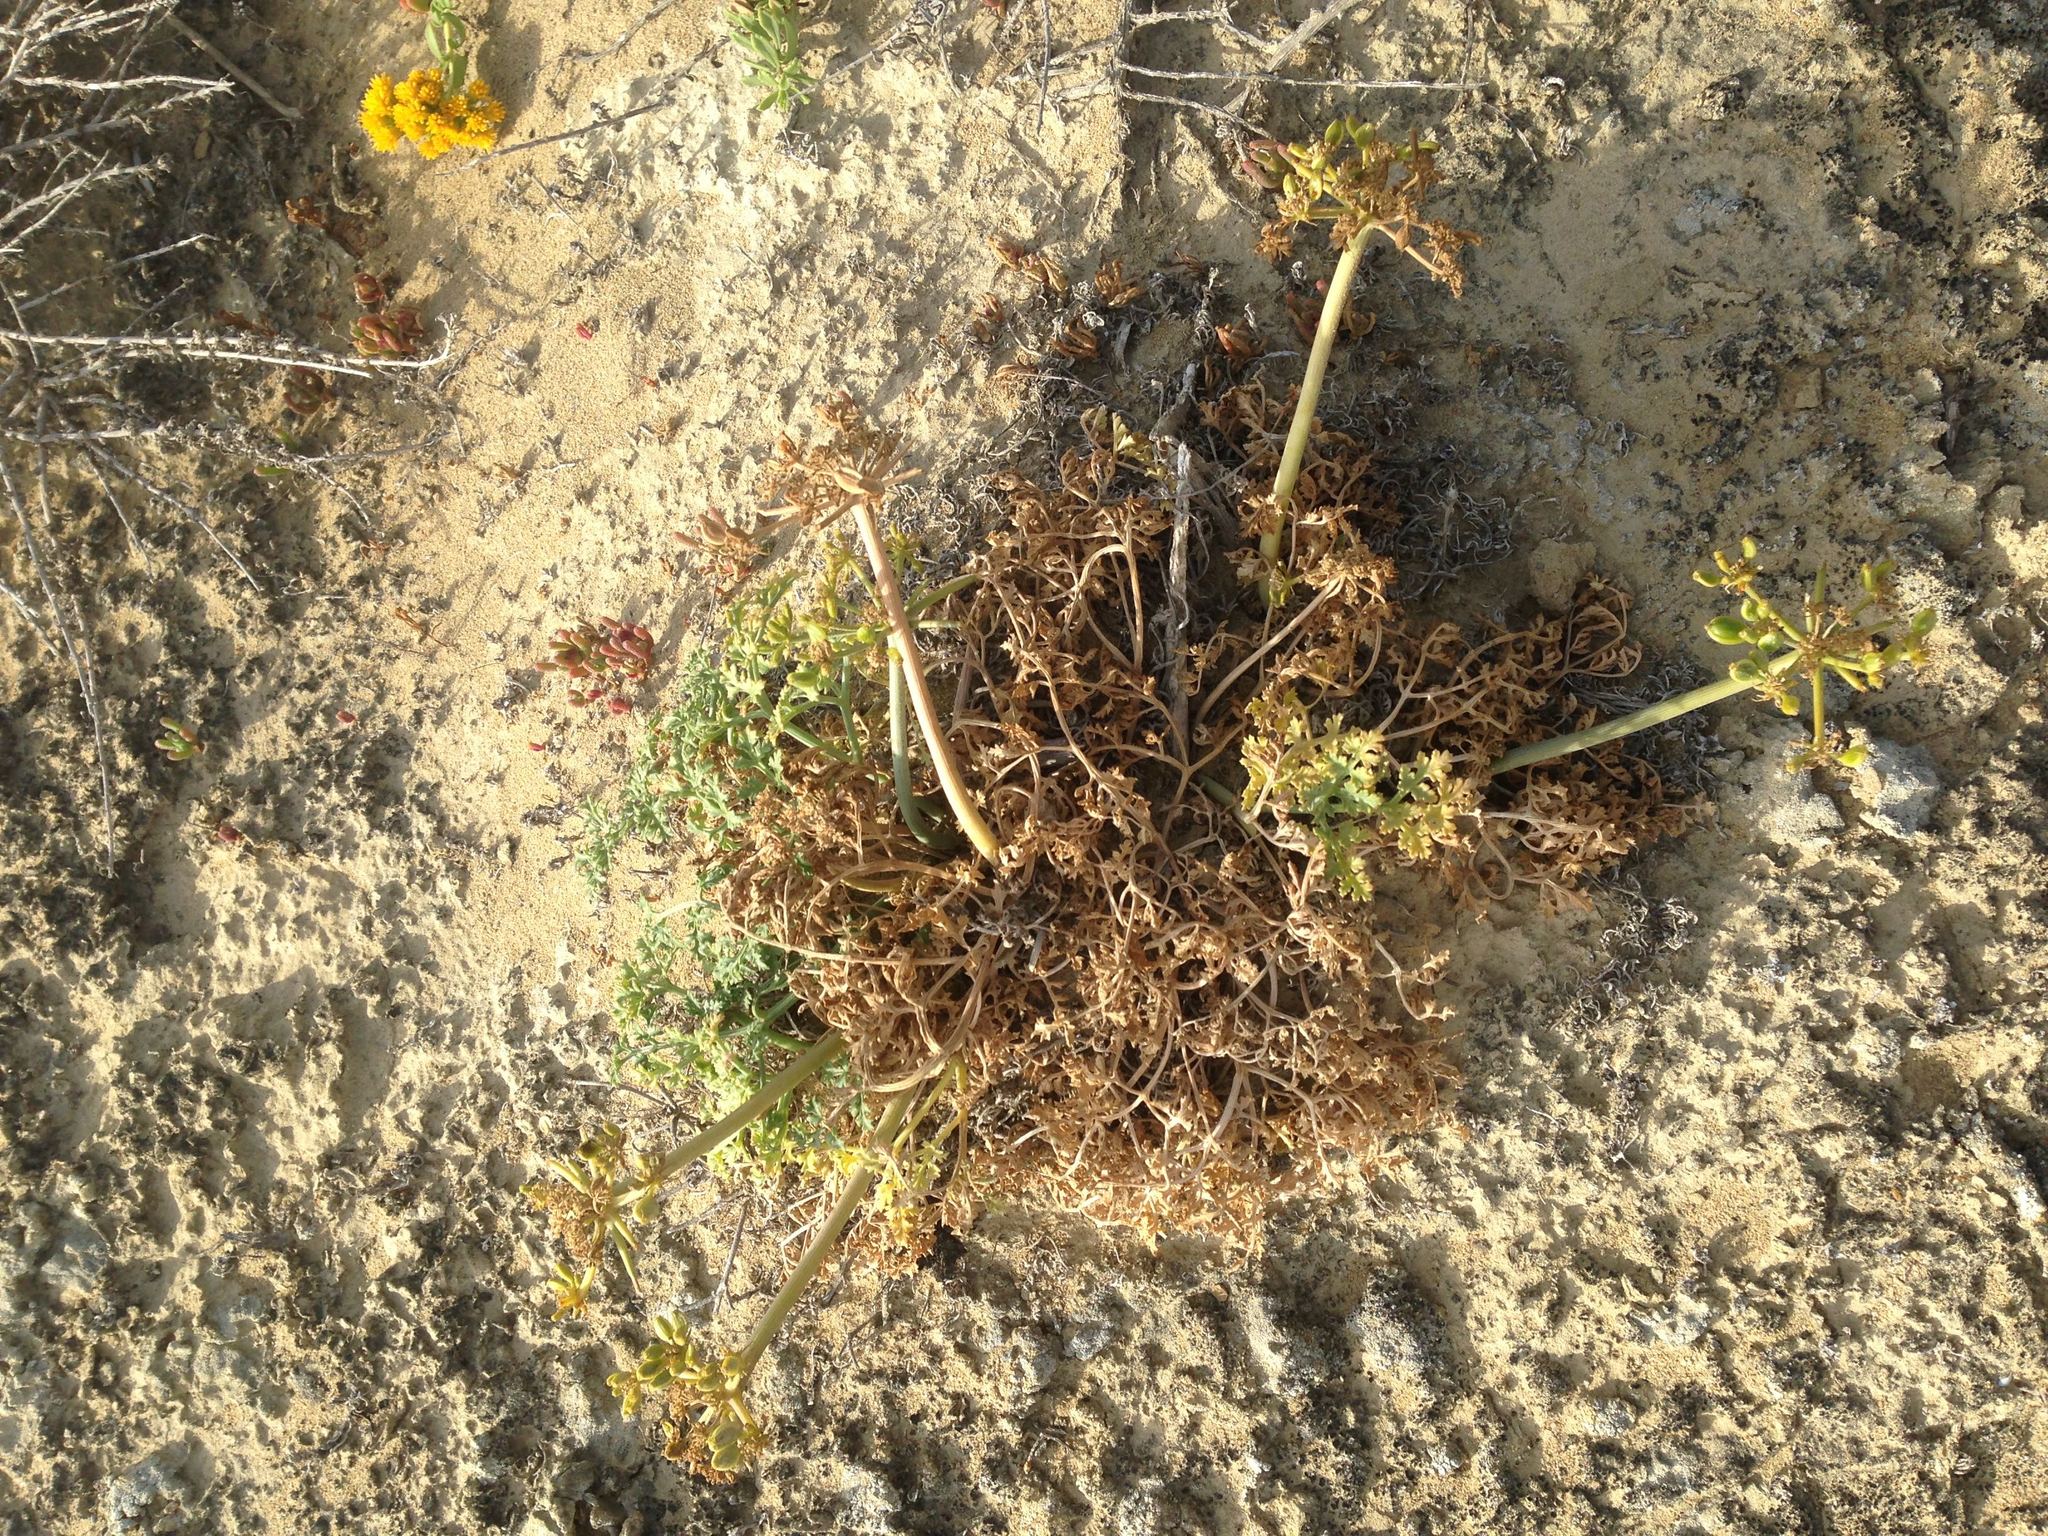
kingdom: Plantae
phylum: Tracheophyta
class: Magnoliopsida
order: Apiales
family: Apiaceae
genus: Lomatium
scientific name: Lomatium insulare
